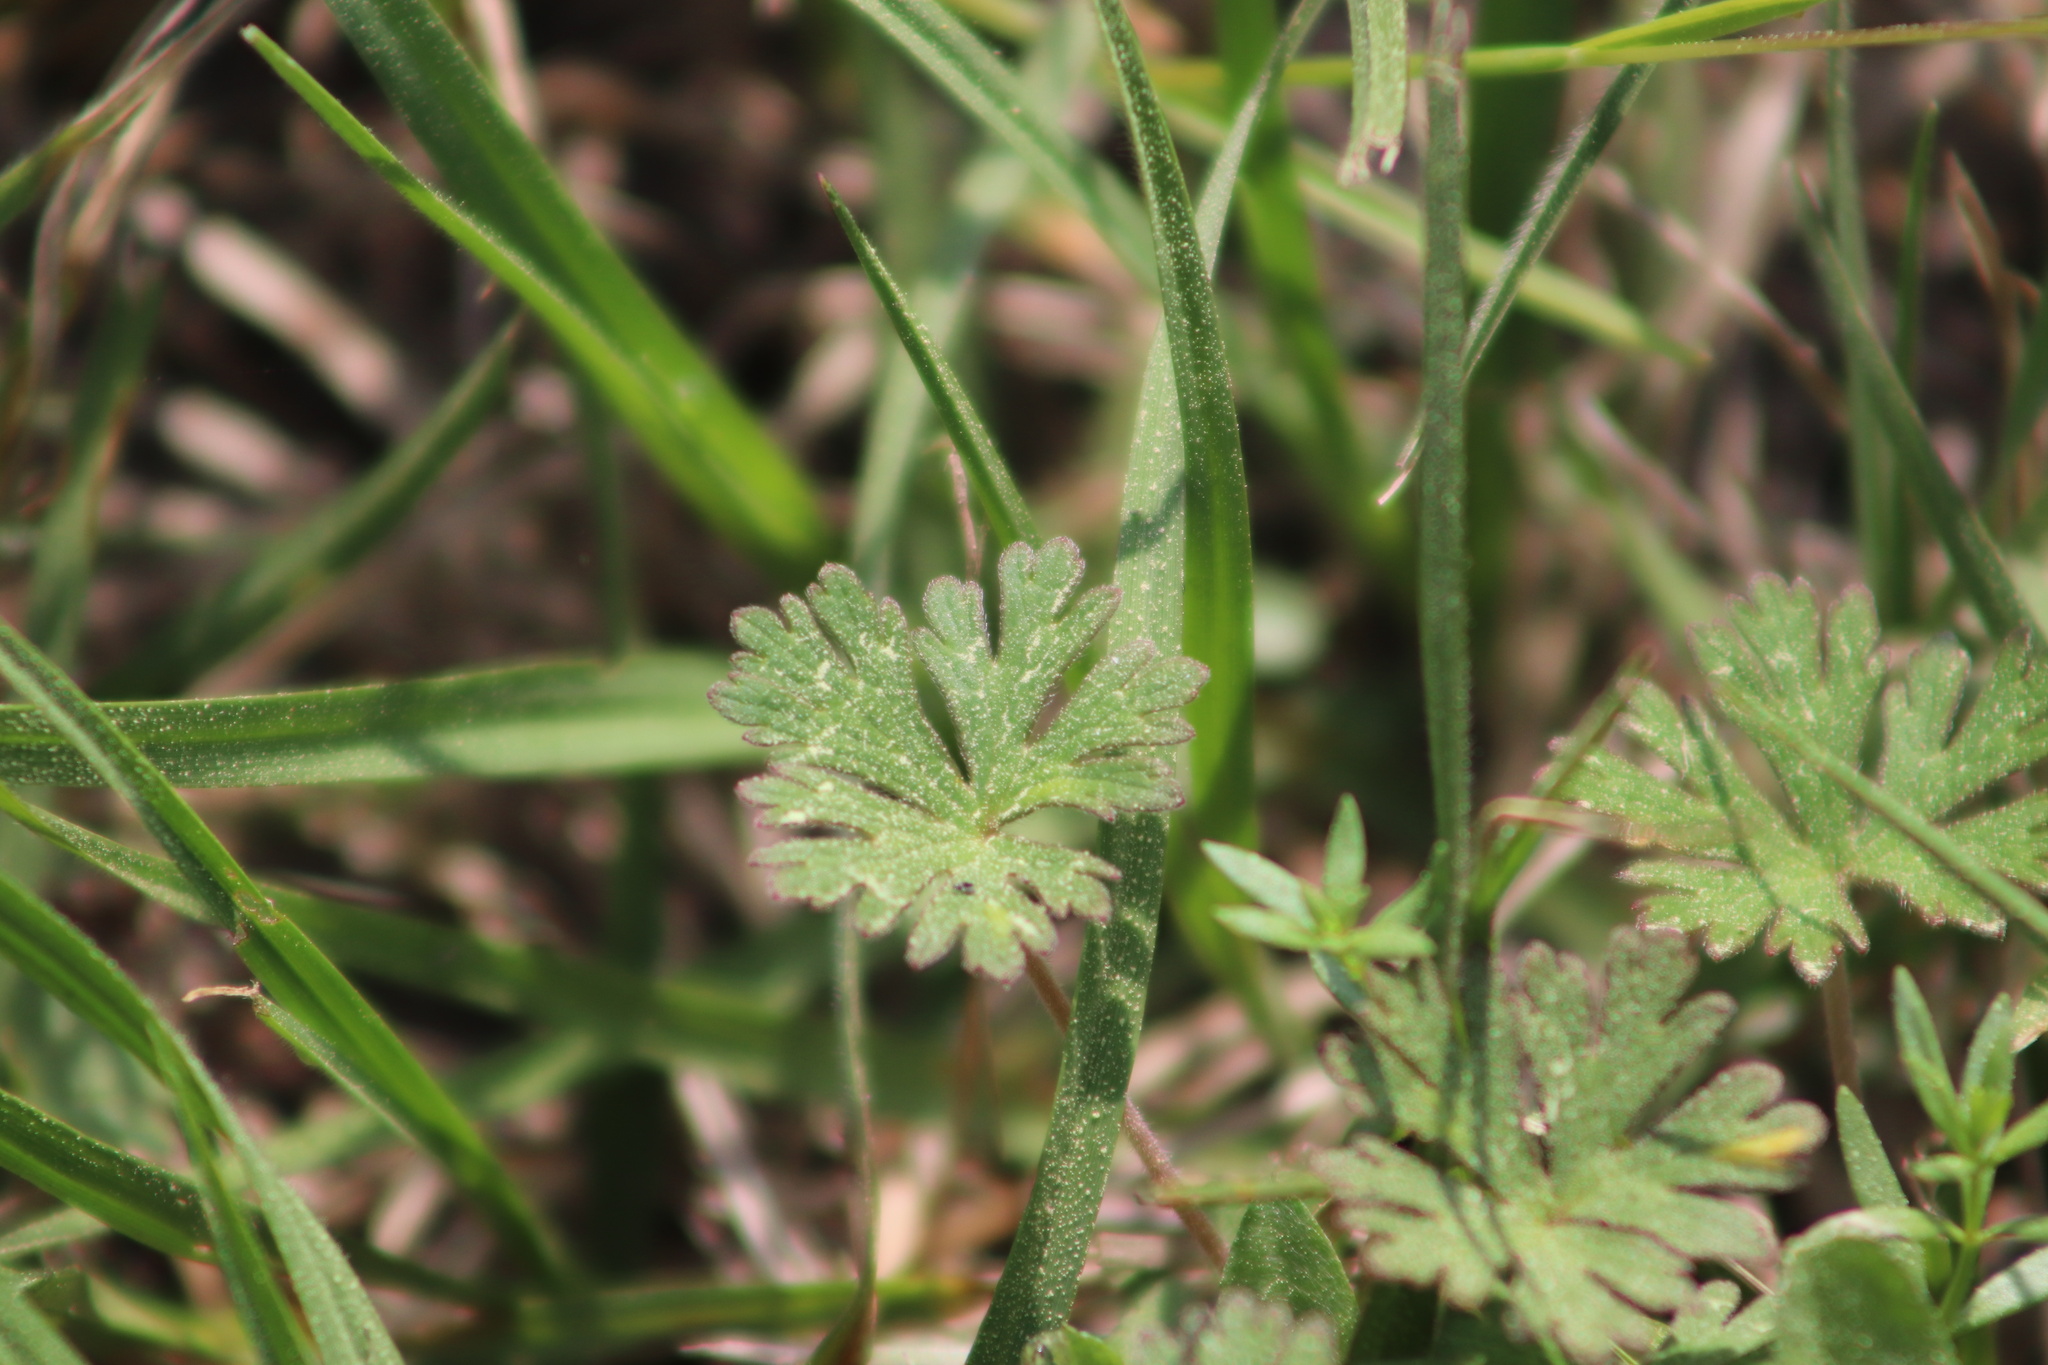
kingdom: Plantae
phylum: Tracheophyta
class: Magnoliopsida
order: Geraniales
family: Geraniaceae
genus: Geranium
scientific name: Geranium carolinianum
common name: Carolina crane's-bill
